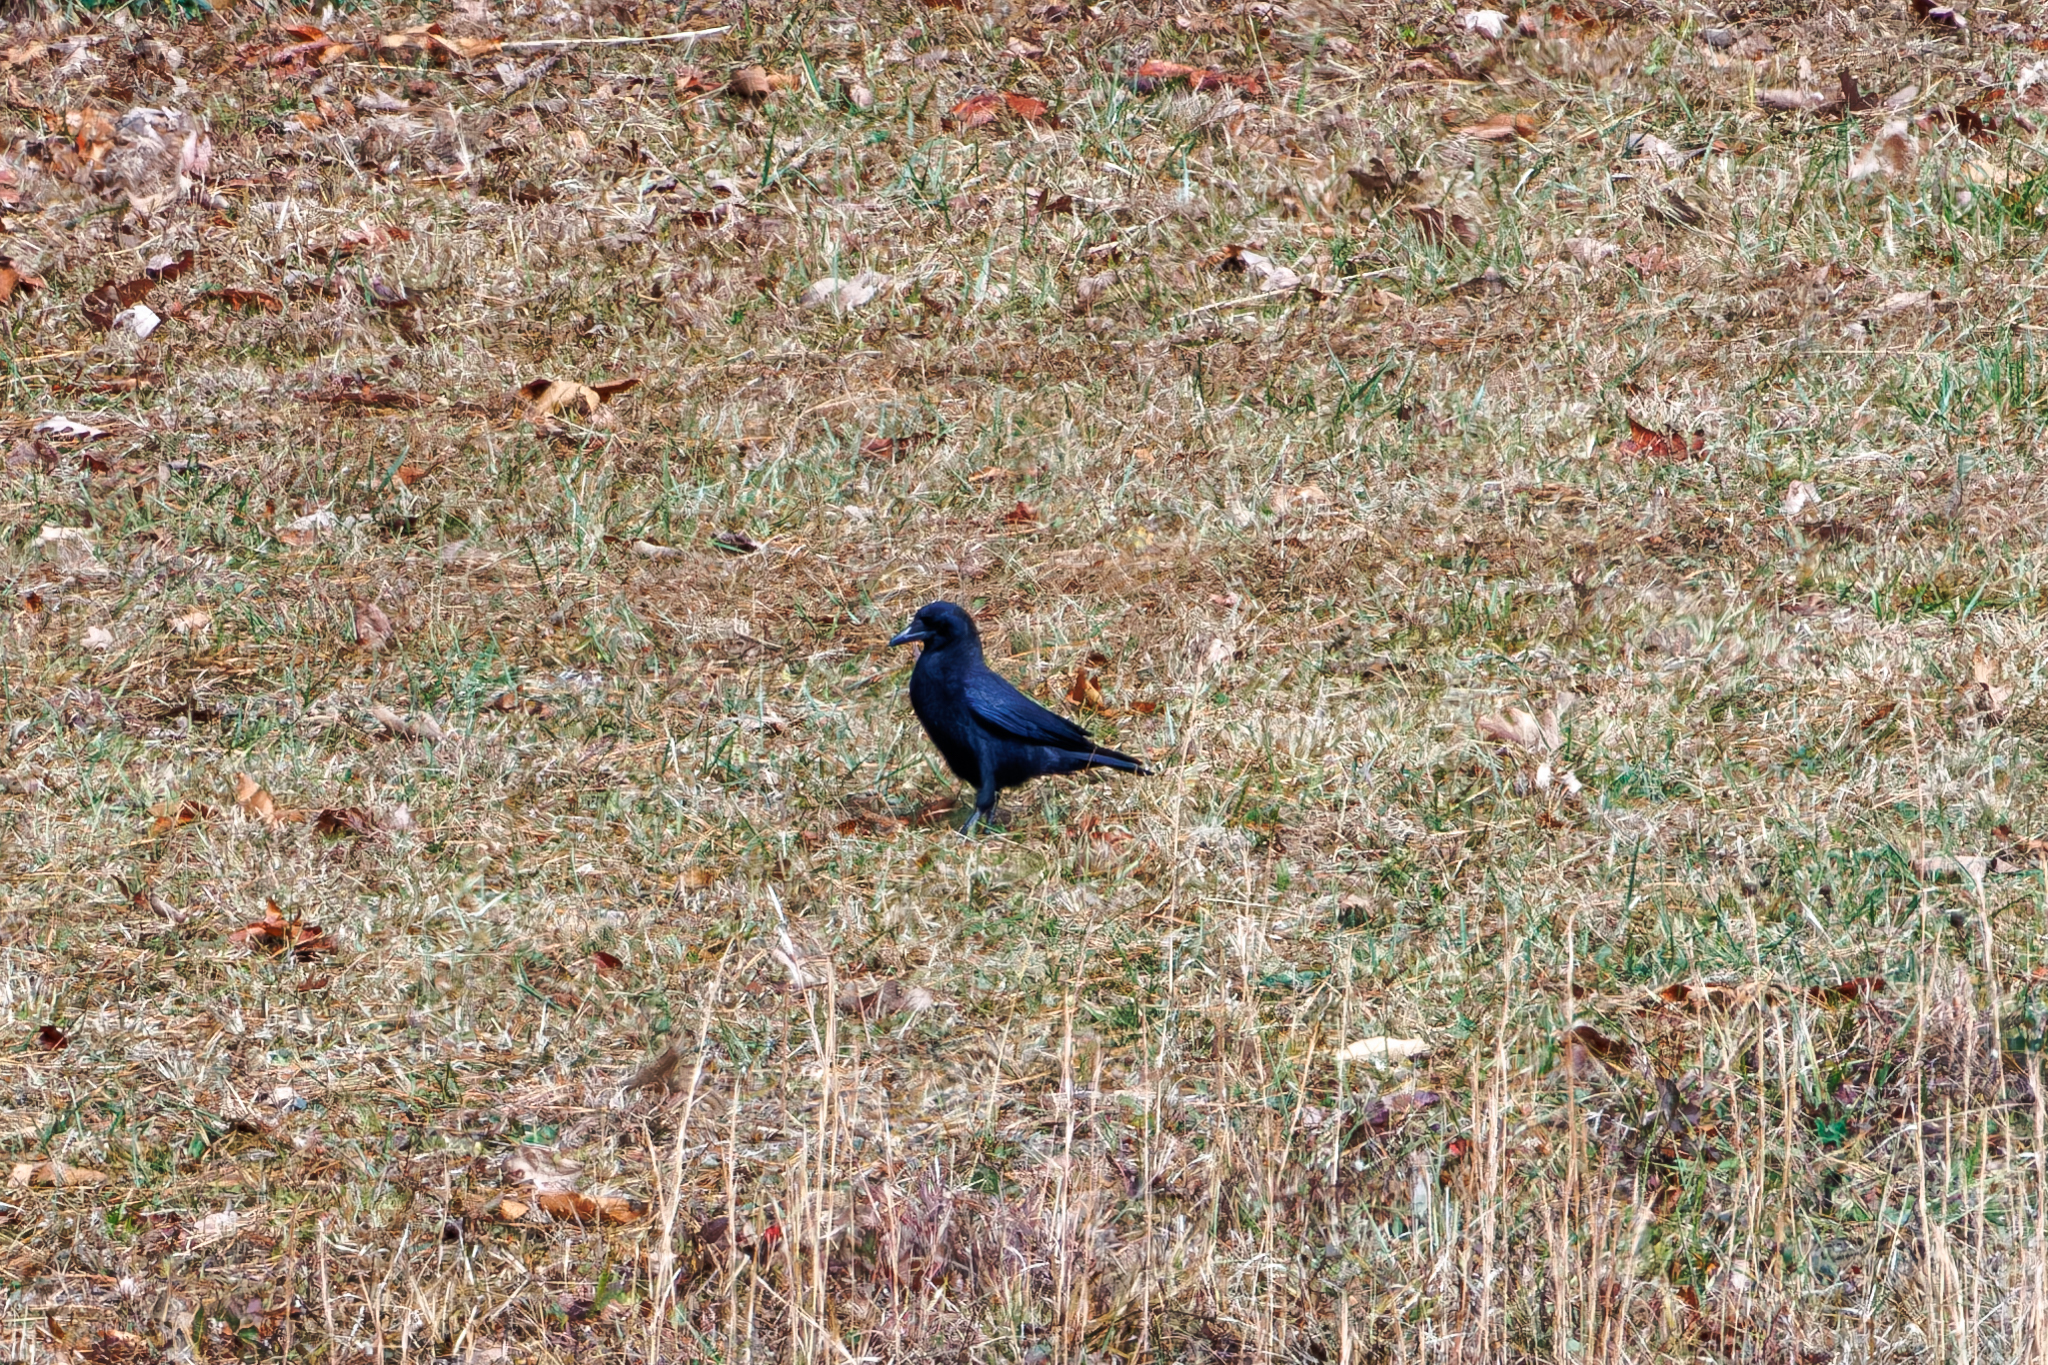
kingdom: Animalia
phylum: Chordata
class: Aves
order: Passeriformes
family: Corvidae
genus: Corvus
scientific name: Corvus brachyrhynchos
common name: American crow
